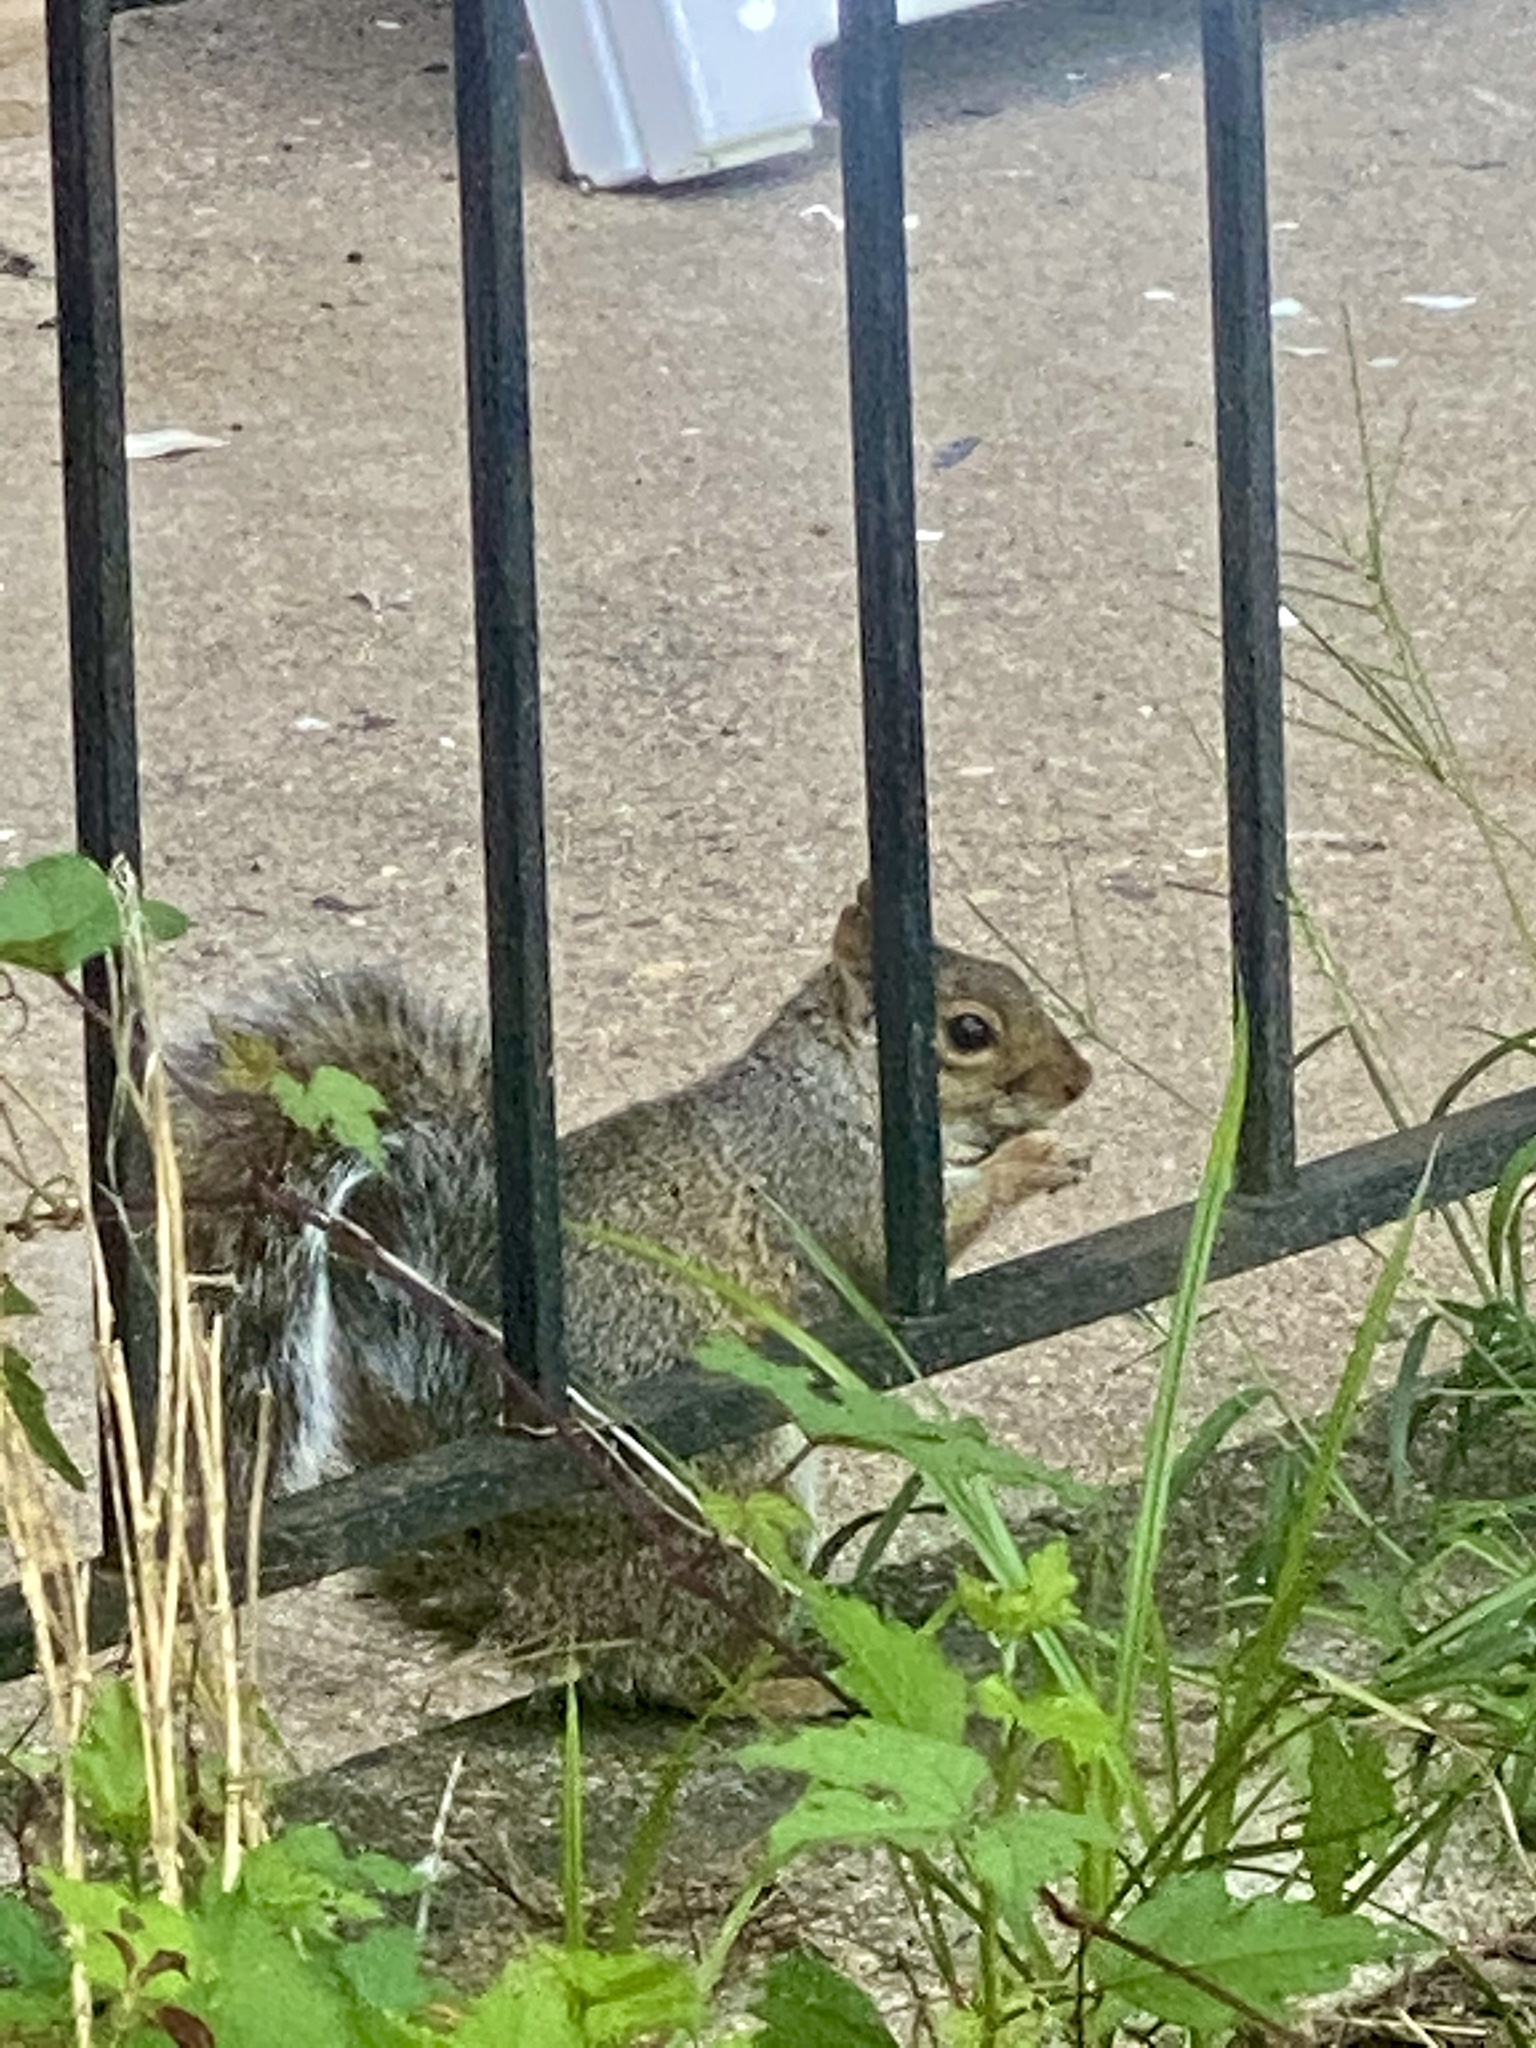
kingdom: Animalia
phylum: Chordata
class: Mammalia
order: Rodentia
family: Sciuridae
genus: Sciurus
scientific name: Sciurus carolinensis
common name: Eastern gray squirrel
